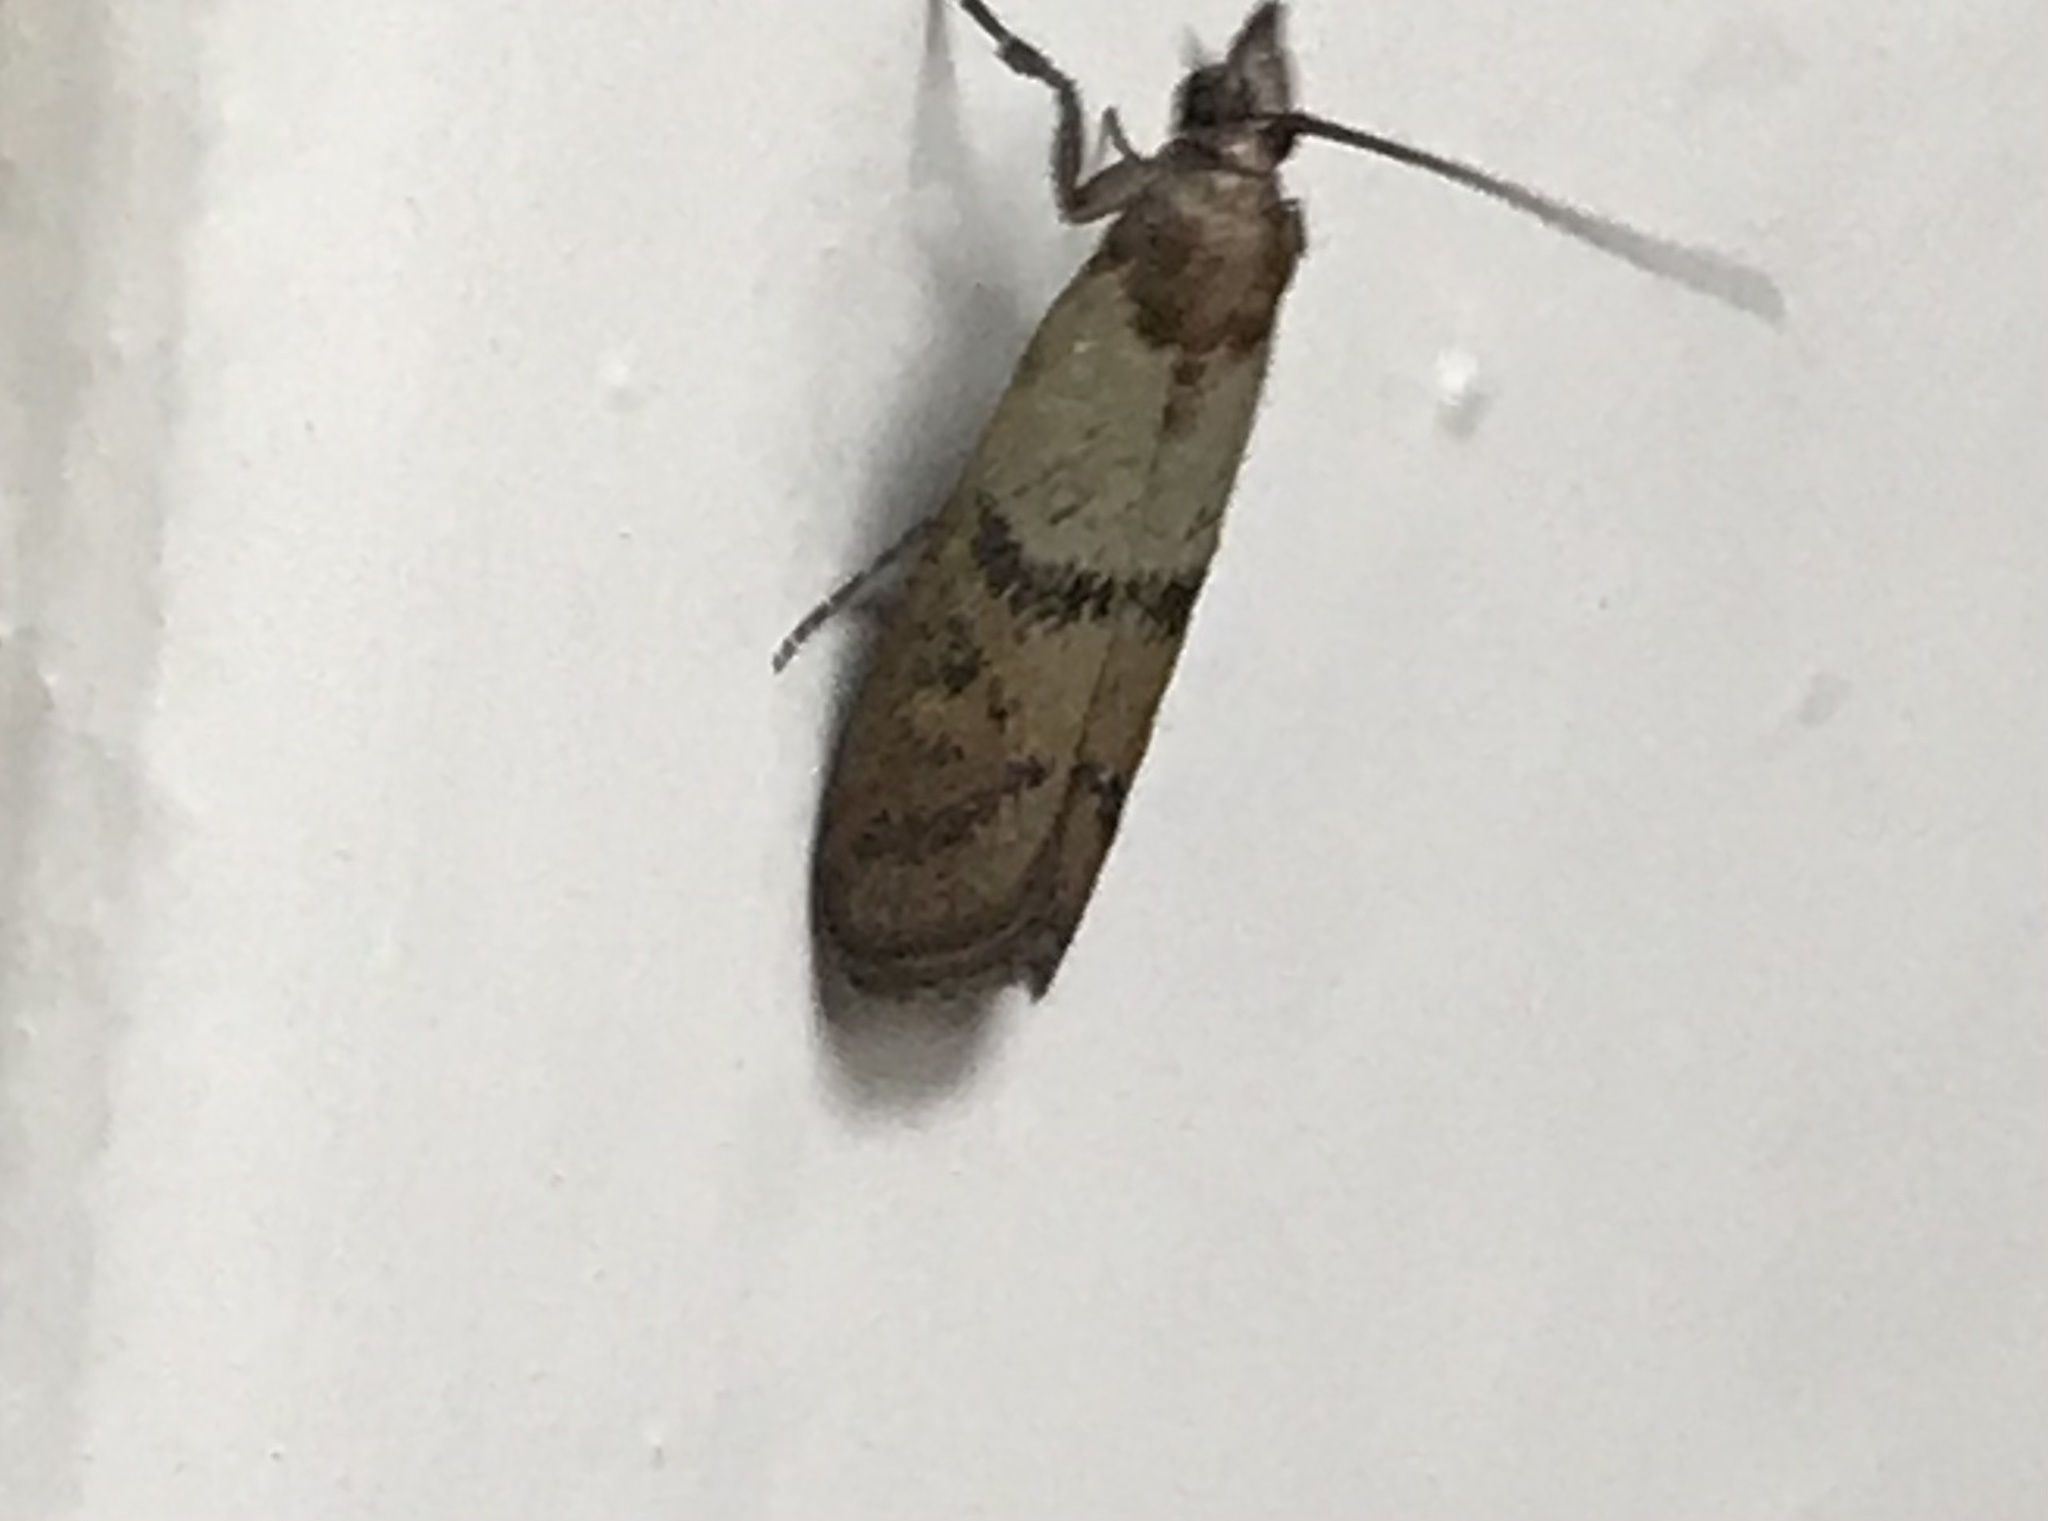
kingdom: Animalia
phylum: Arthropoda
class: Insecta
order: Lepidoptera
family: Pyralidae
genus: Plodia
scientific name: Plodia interpunctella
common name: Indian meal moth
